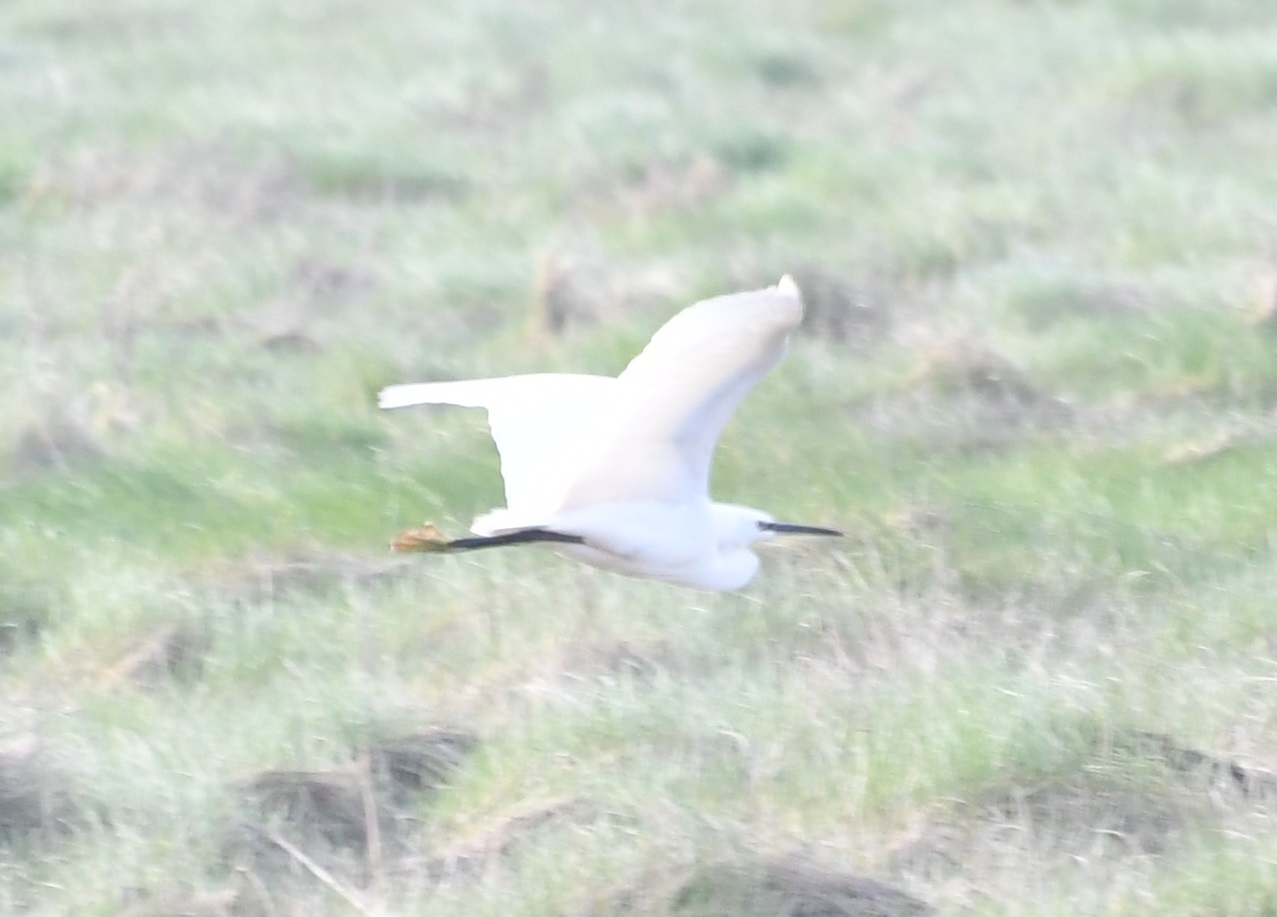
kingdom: Animalia
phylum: Chordata
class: Aves
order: Pelecaniformes
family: Ardeidae
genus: Egretta
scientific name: Egretta garzetta
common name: Little egret
